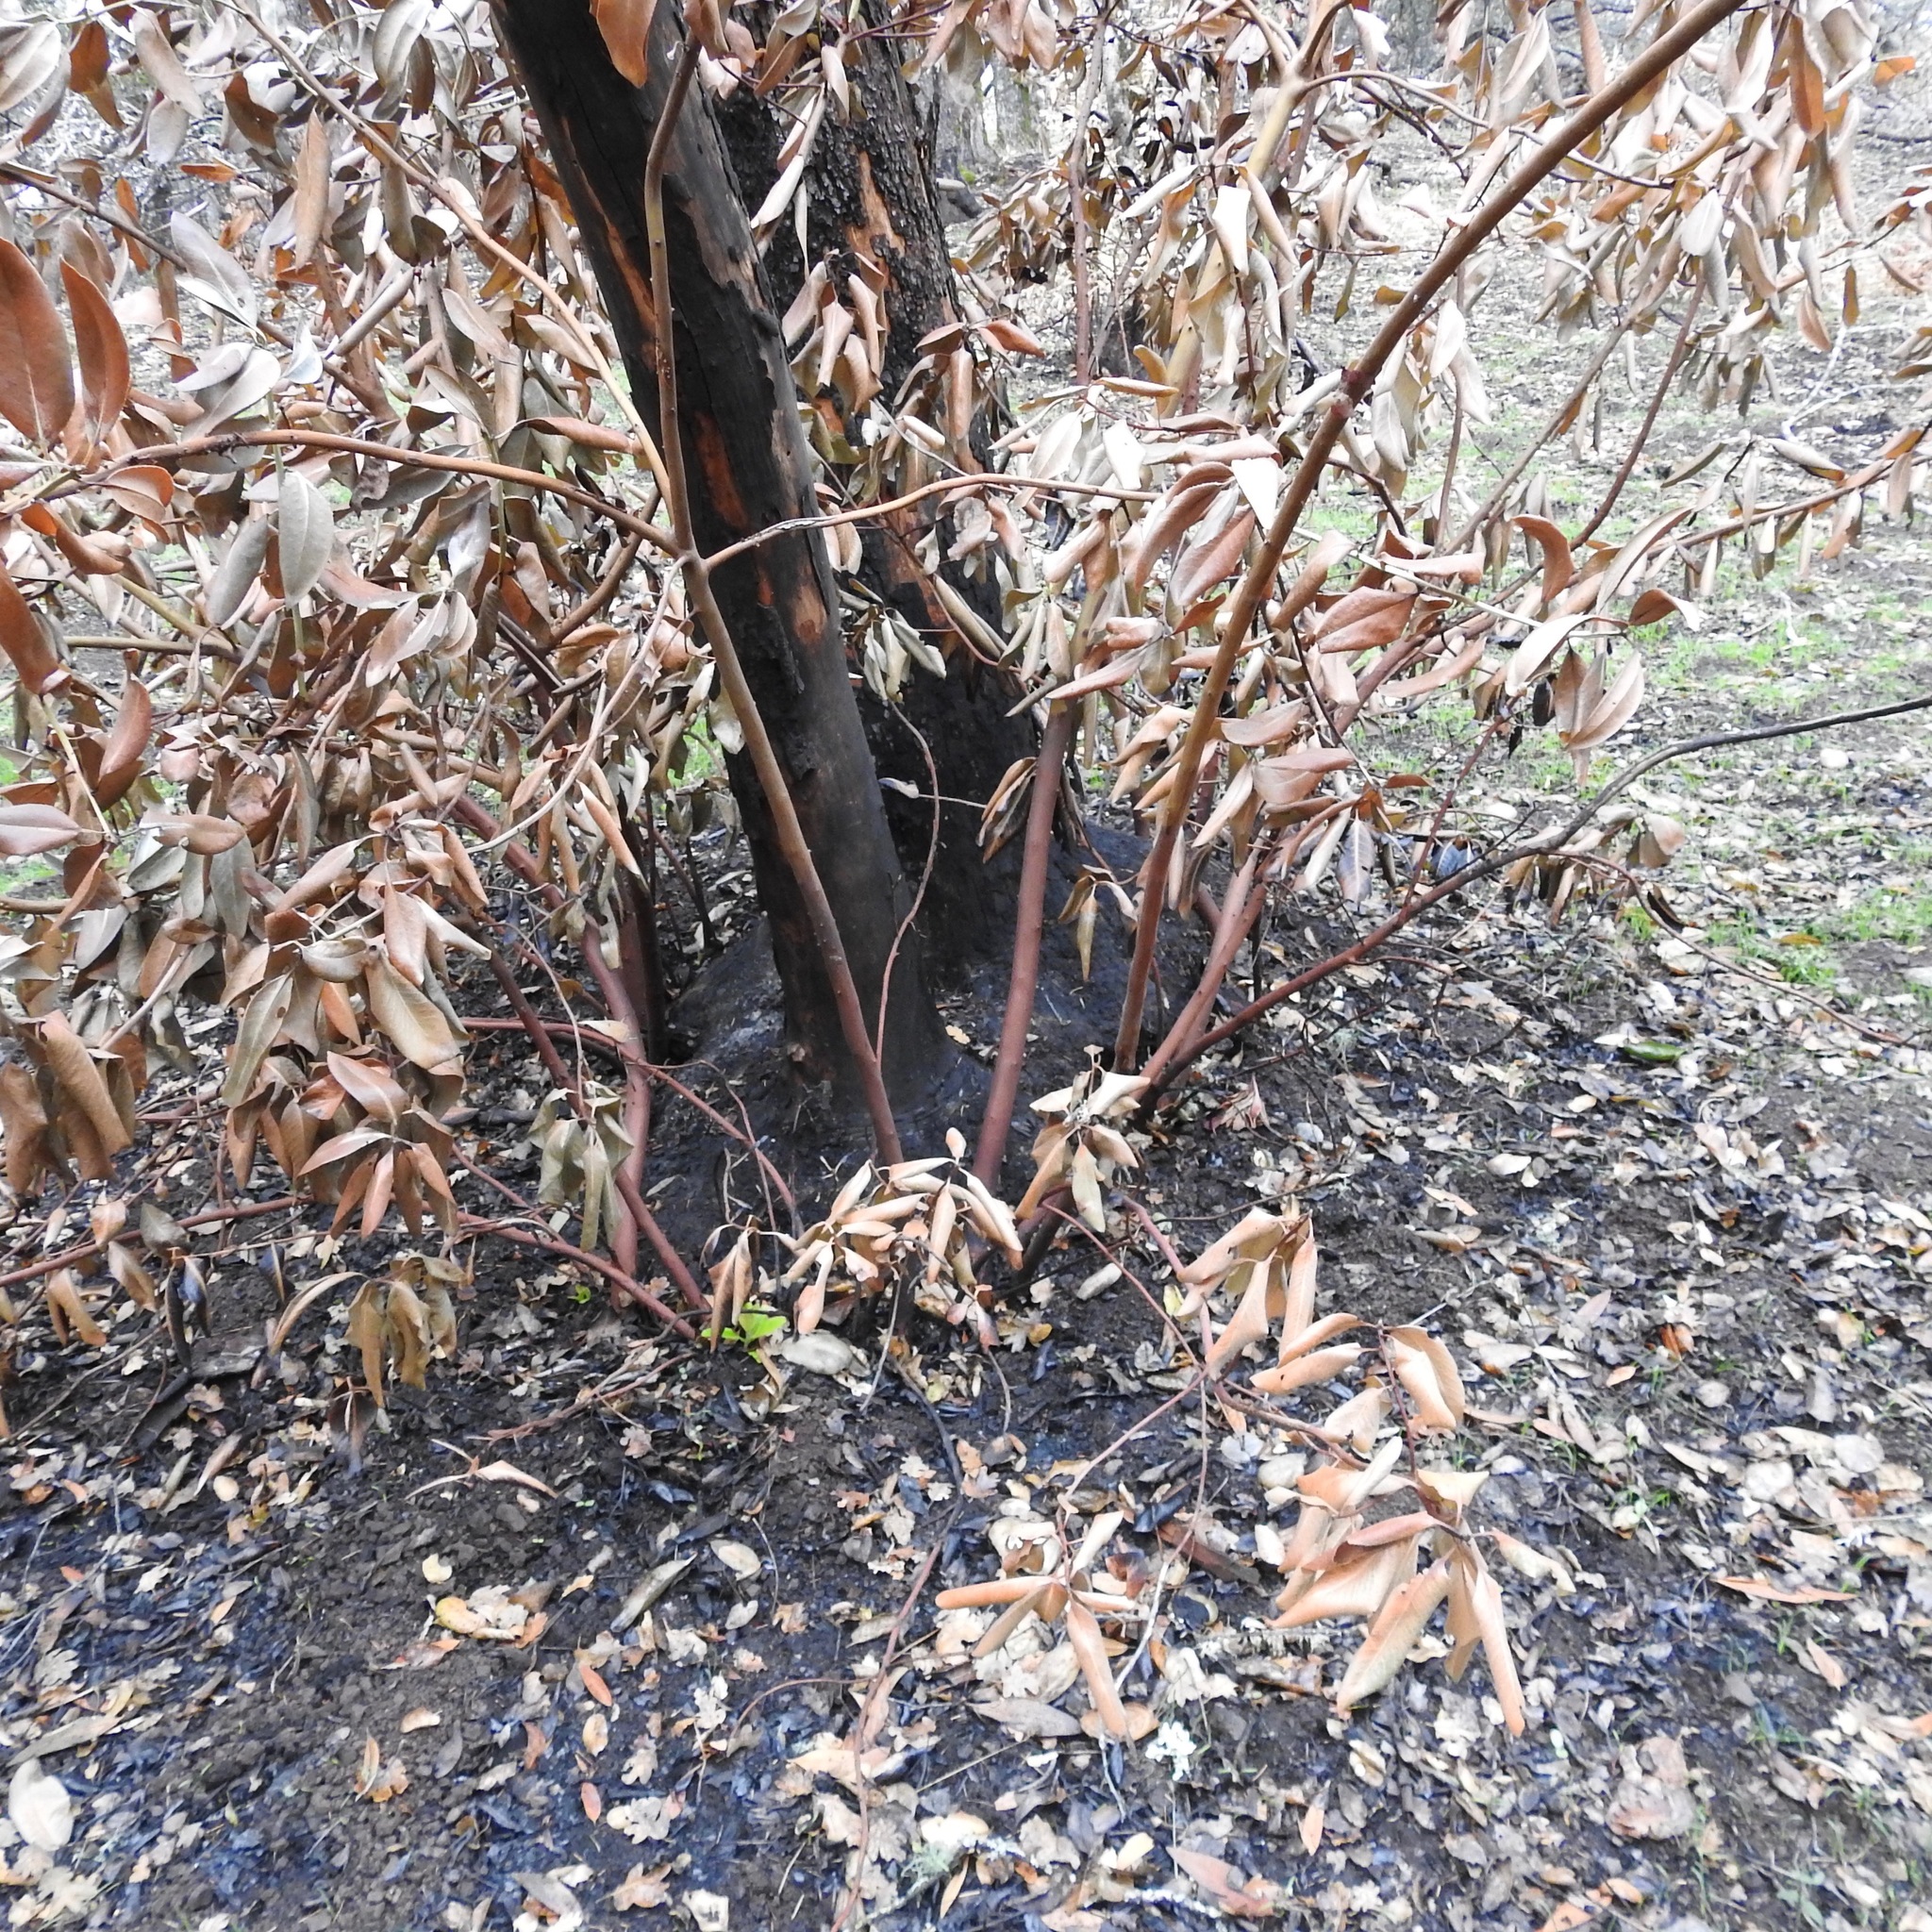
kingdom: Plantae
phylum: Tracheophyta
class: Magnoliopsida
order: Ericales
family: Ericaceae
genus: Arbutus
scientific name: Arbutus menziesii
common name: Pacific madrone
